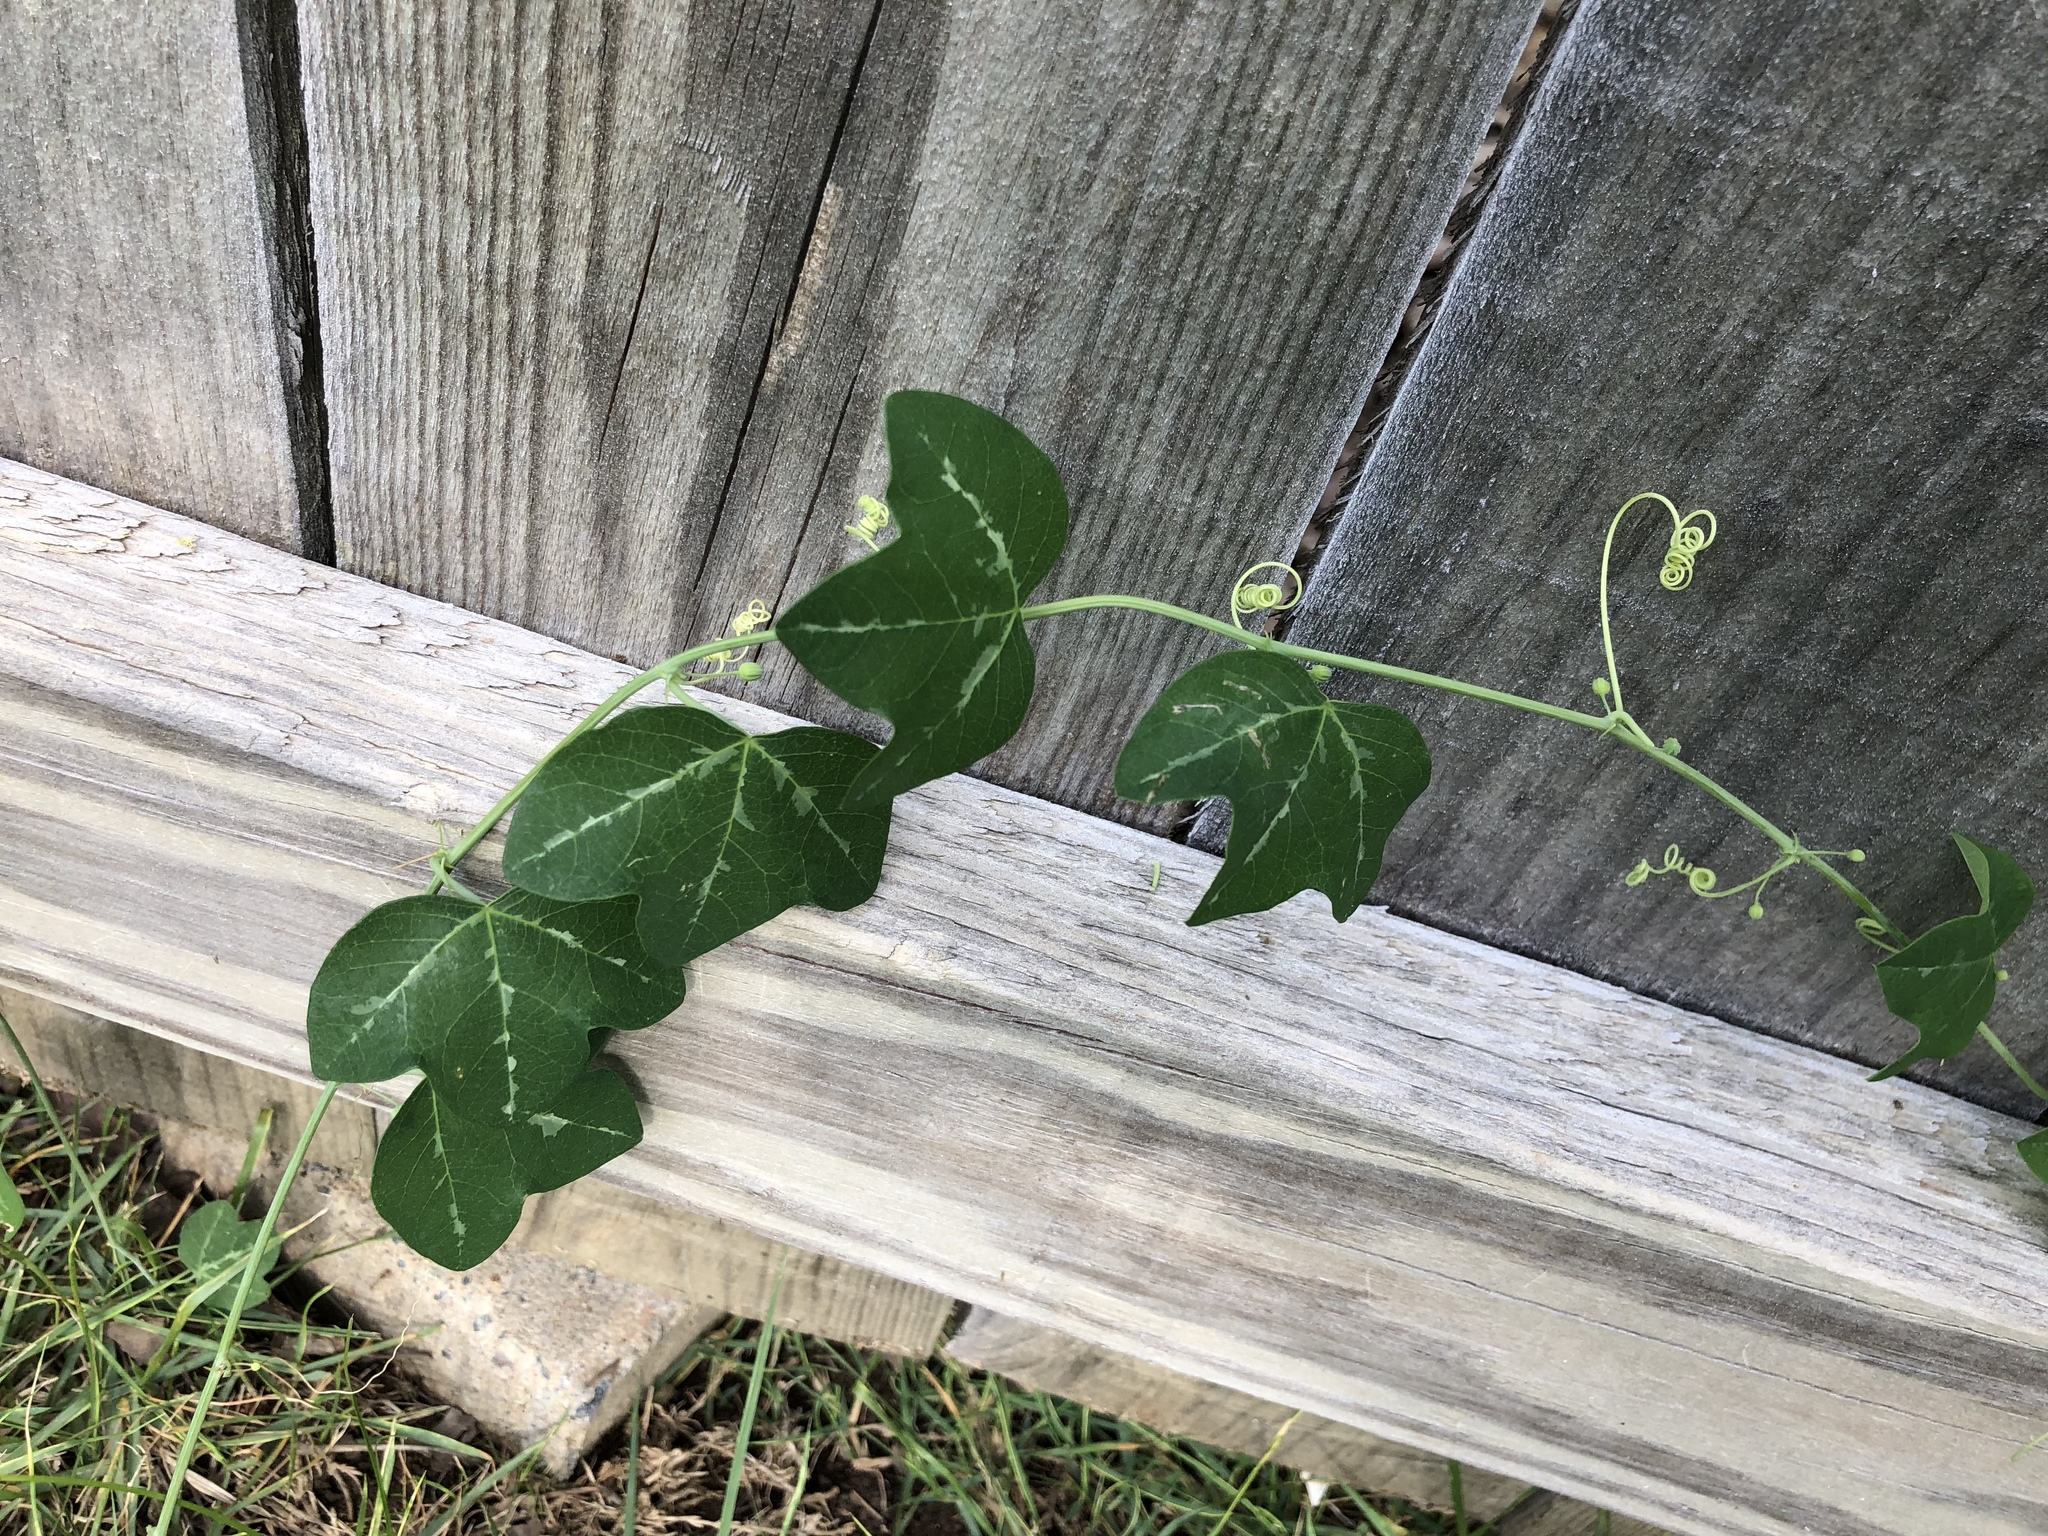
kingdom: Plantae
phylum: Tracheophyta
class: Magnoliopsida
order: Malpighiales
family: Passifloraceae
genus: Passiflora
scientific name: Passiflora lutea
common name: Yellow passionflower
